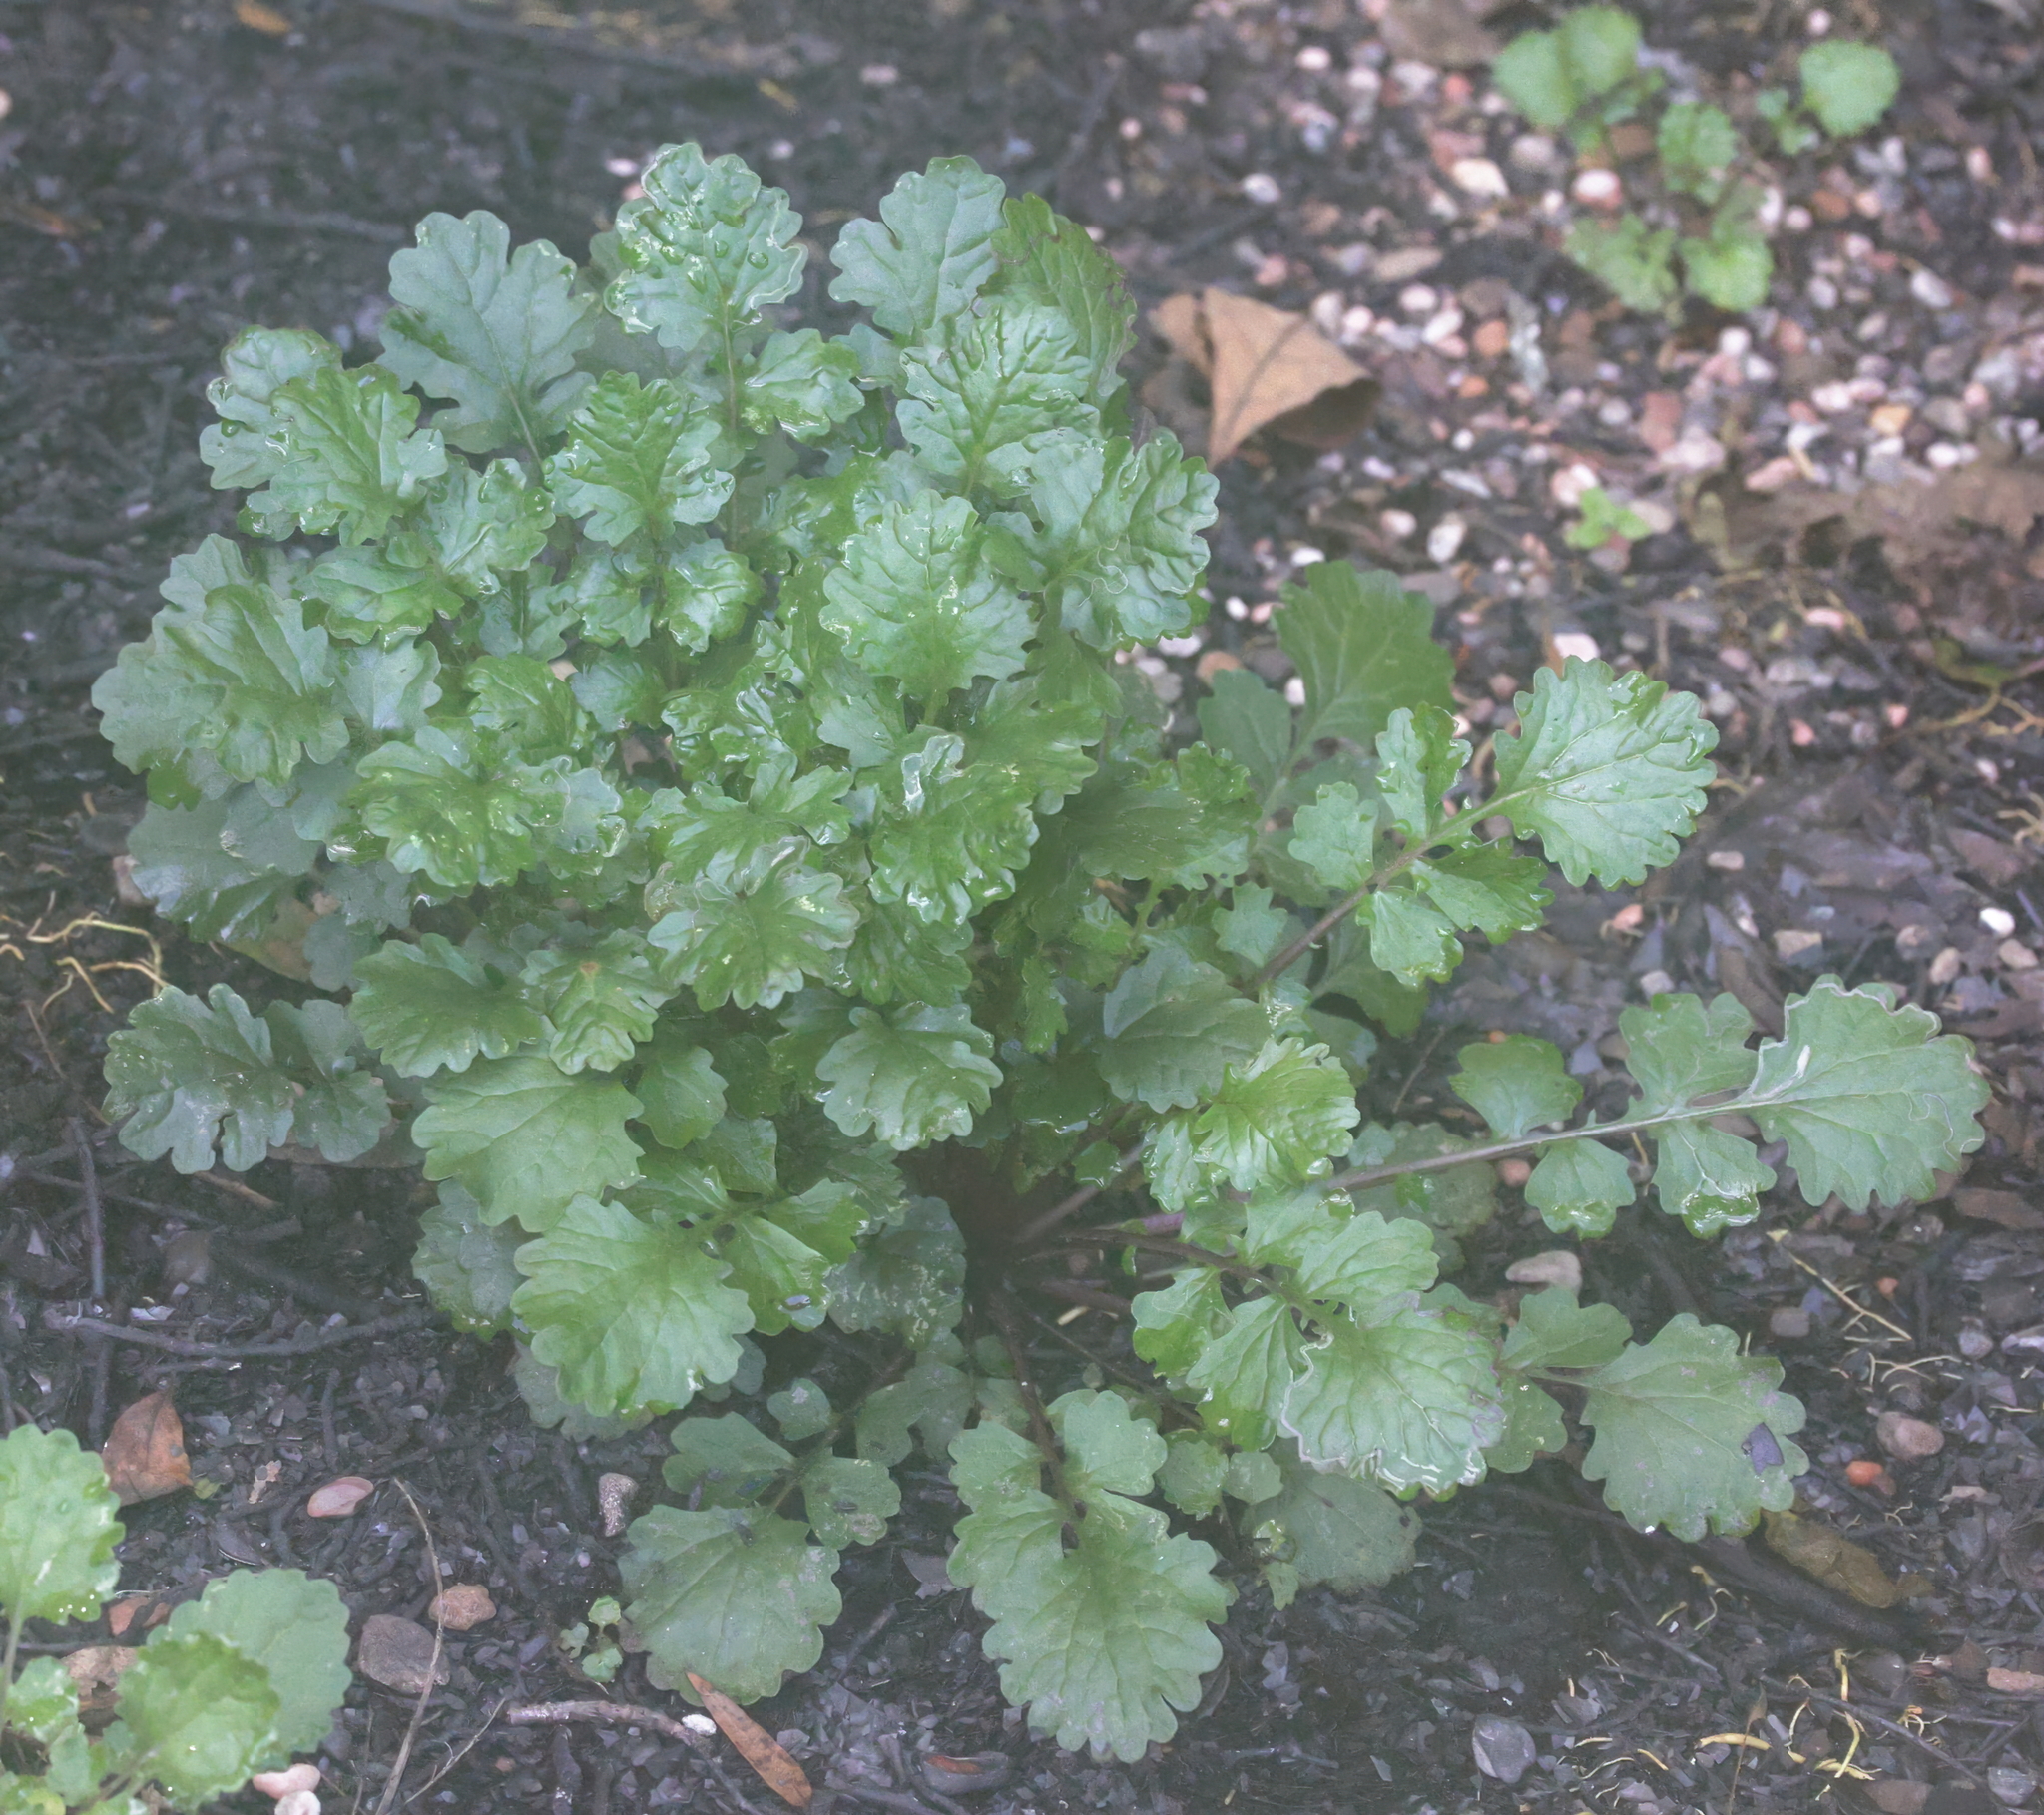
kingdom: Plantae
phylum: Tracheophyta
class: Magnoliopsida
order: Asterales
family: Asteraceae
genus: Packera
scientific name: Packera glabella
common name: Butterweed
